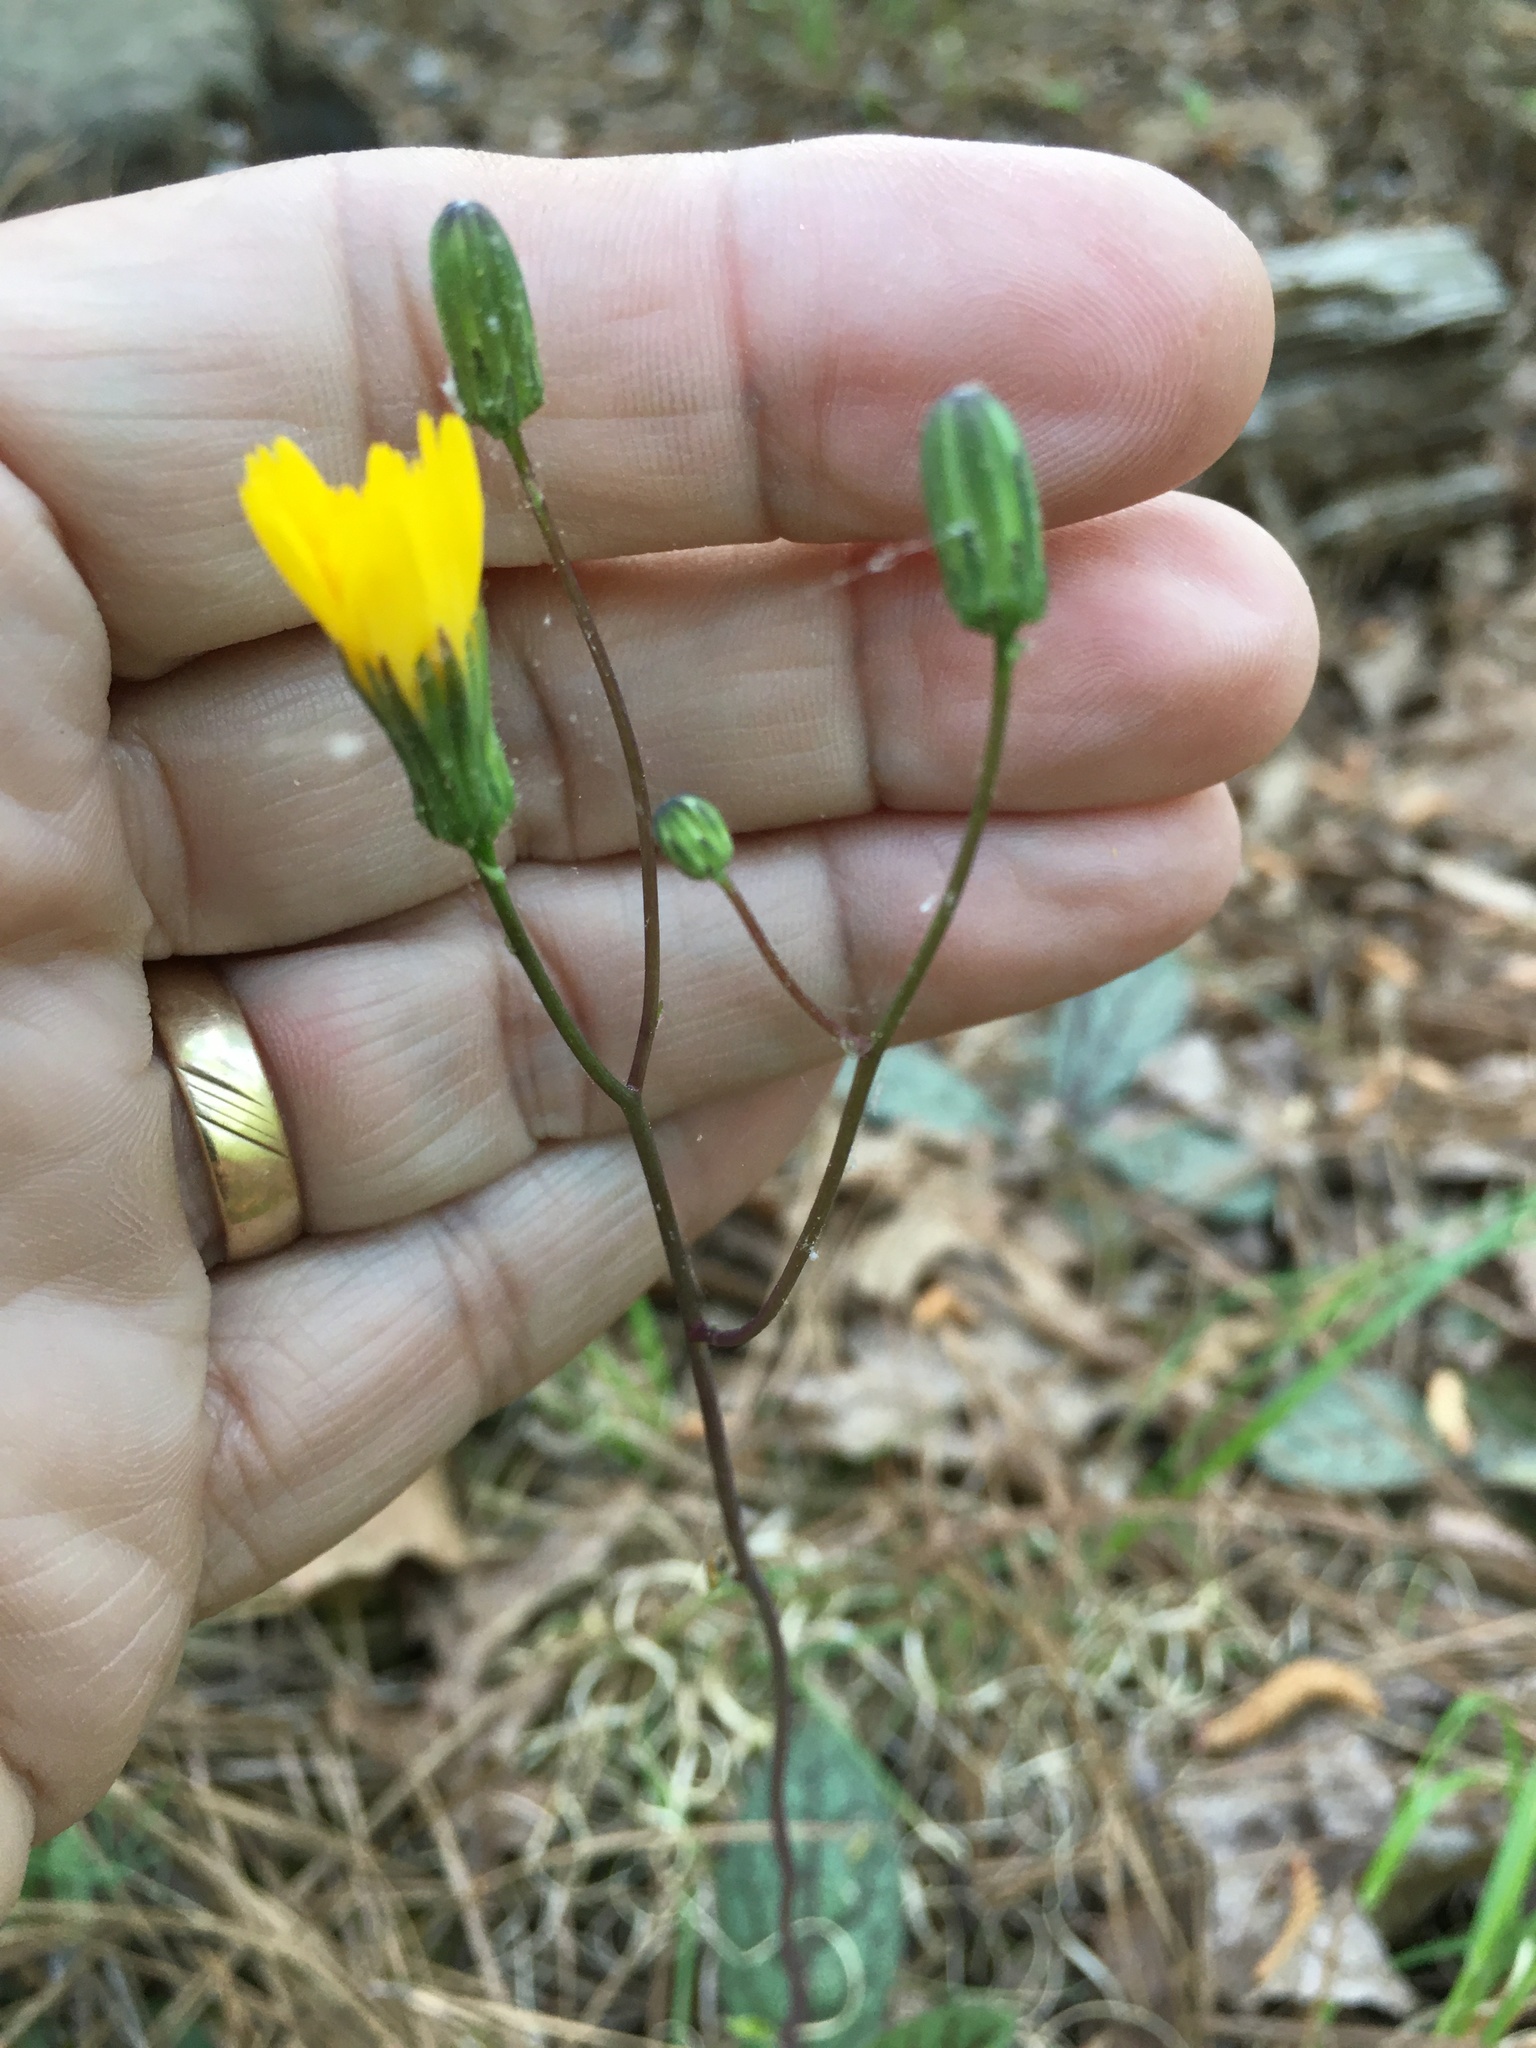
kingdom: Plantae
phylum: Tracheophyta
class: Magnoliopsida
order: Asterales
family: Asteraceae
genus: Hieracium
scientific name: Hieracium venosum
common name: Rattlesnake hawkweed
